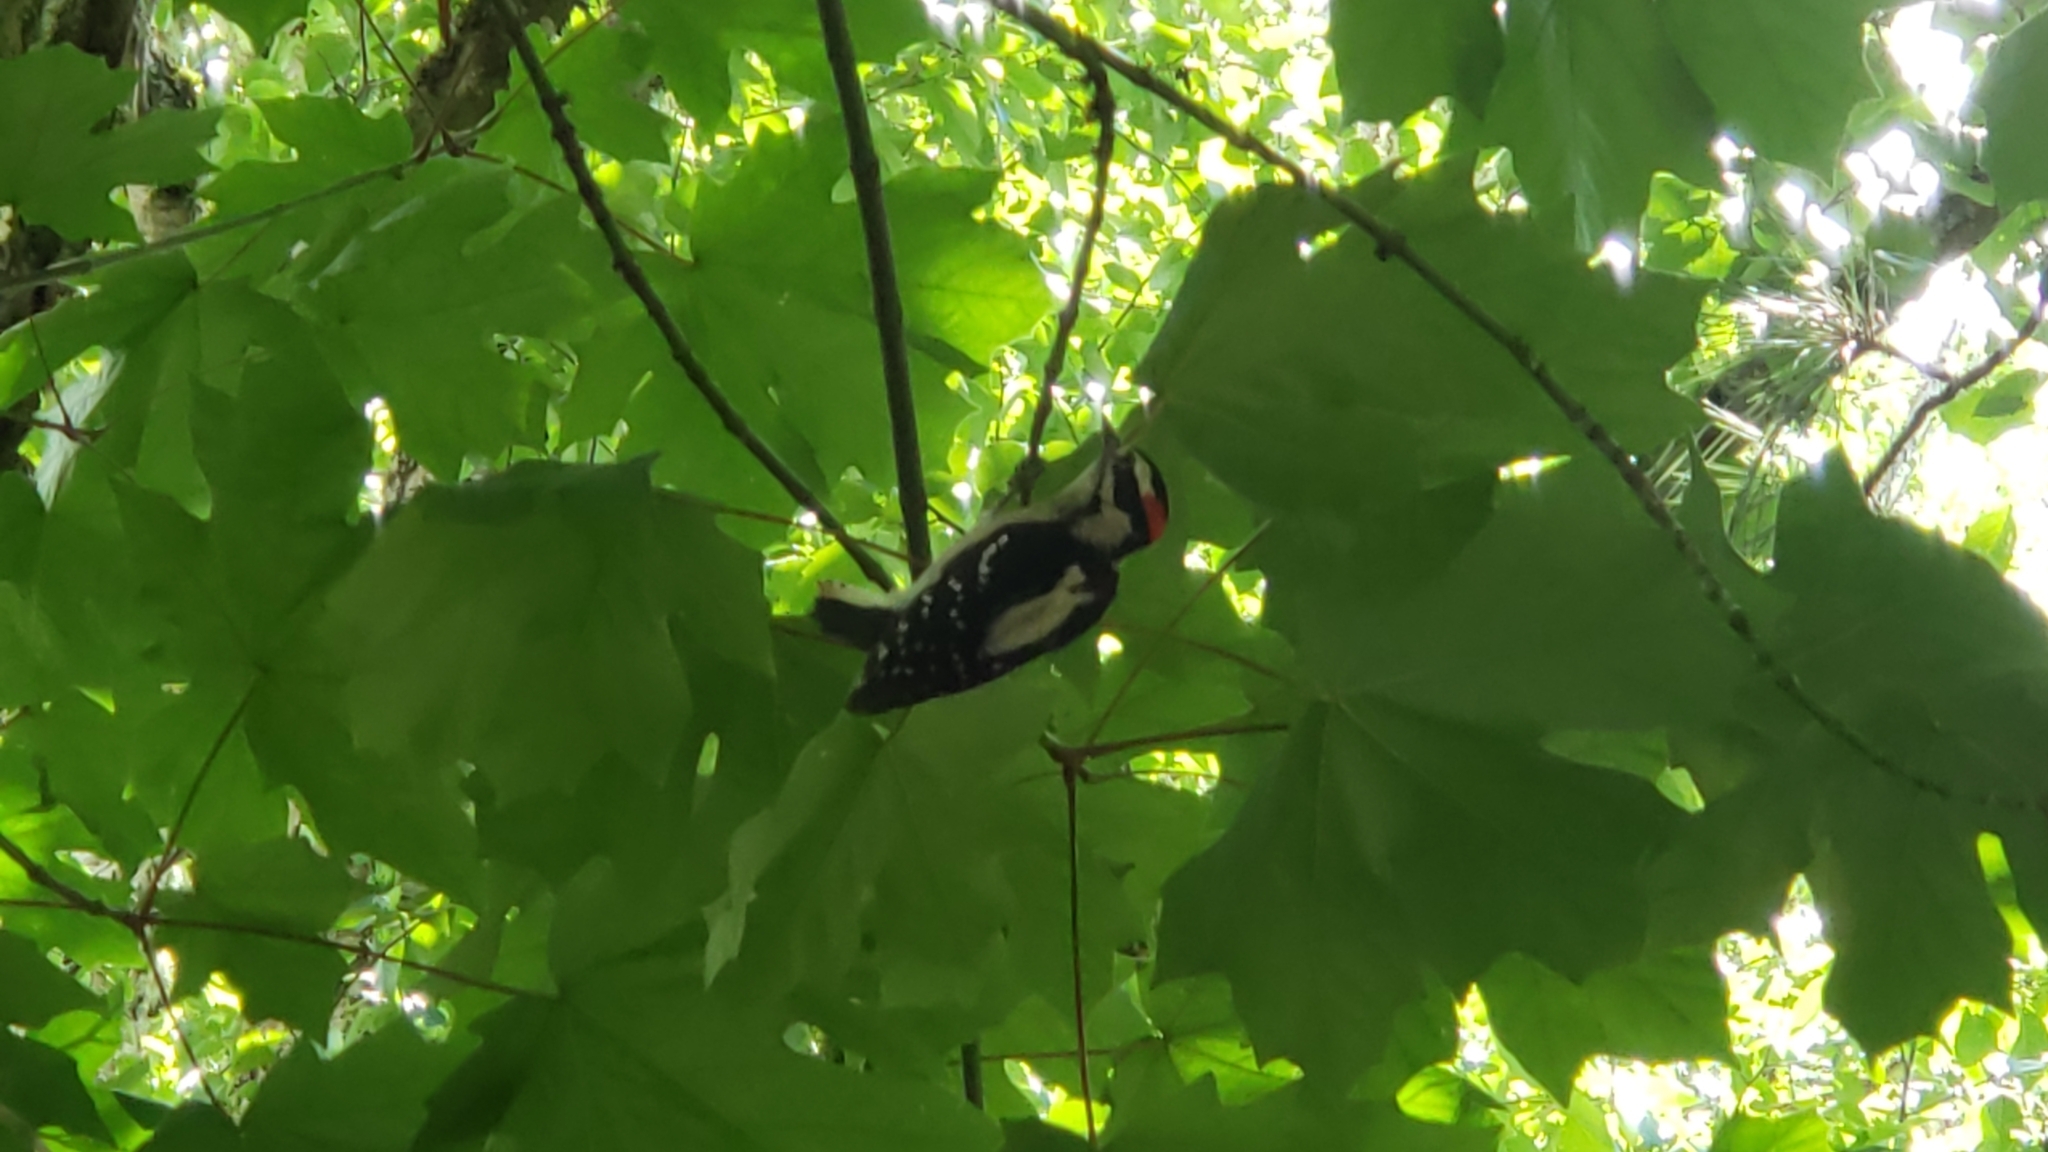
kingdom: Animalia
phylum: Chordata
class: Aves
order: Piciformes
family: Picidae
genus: Dryobates
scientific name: Dryobates pubescens
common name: Downy woodpecker
